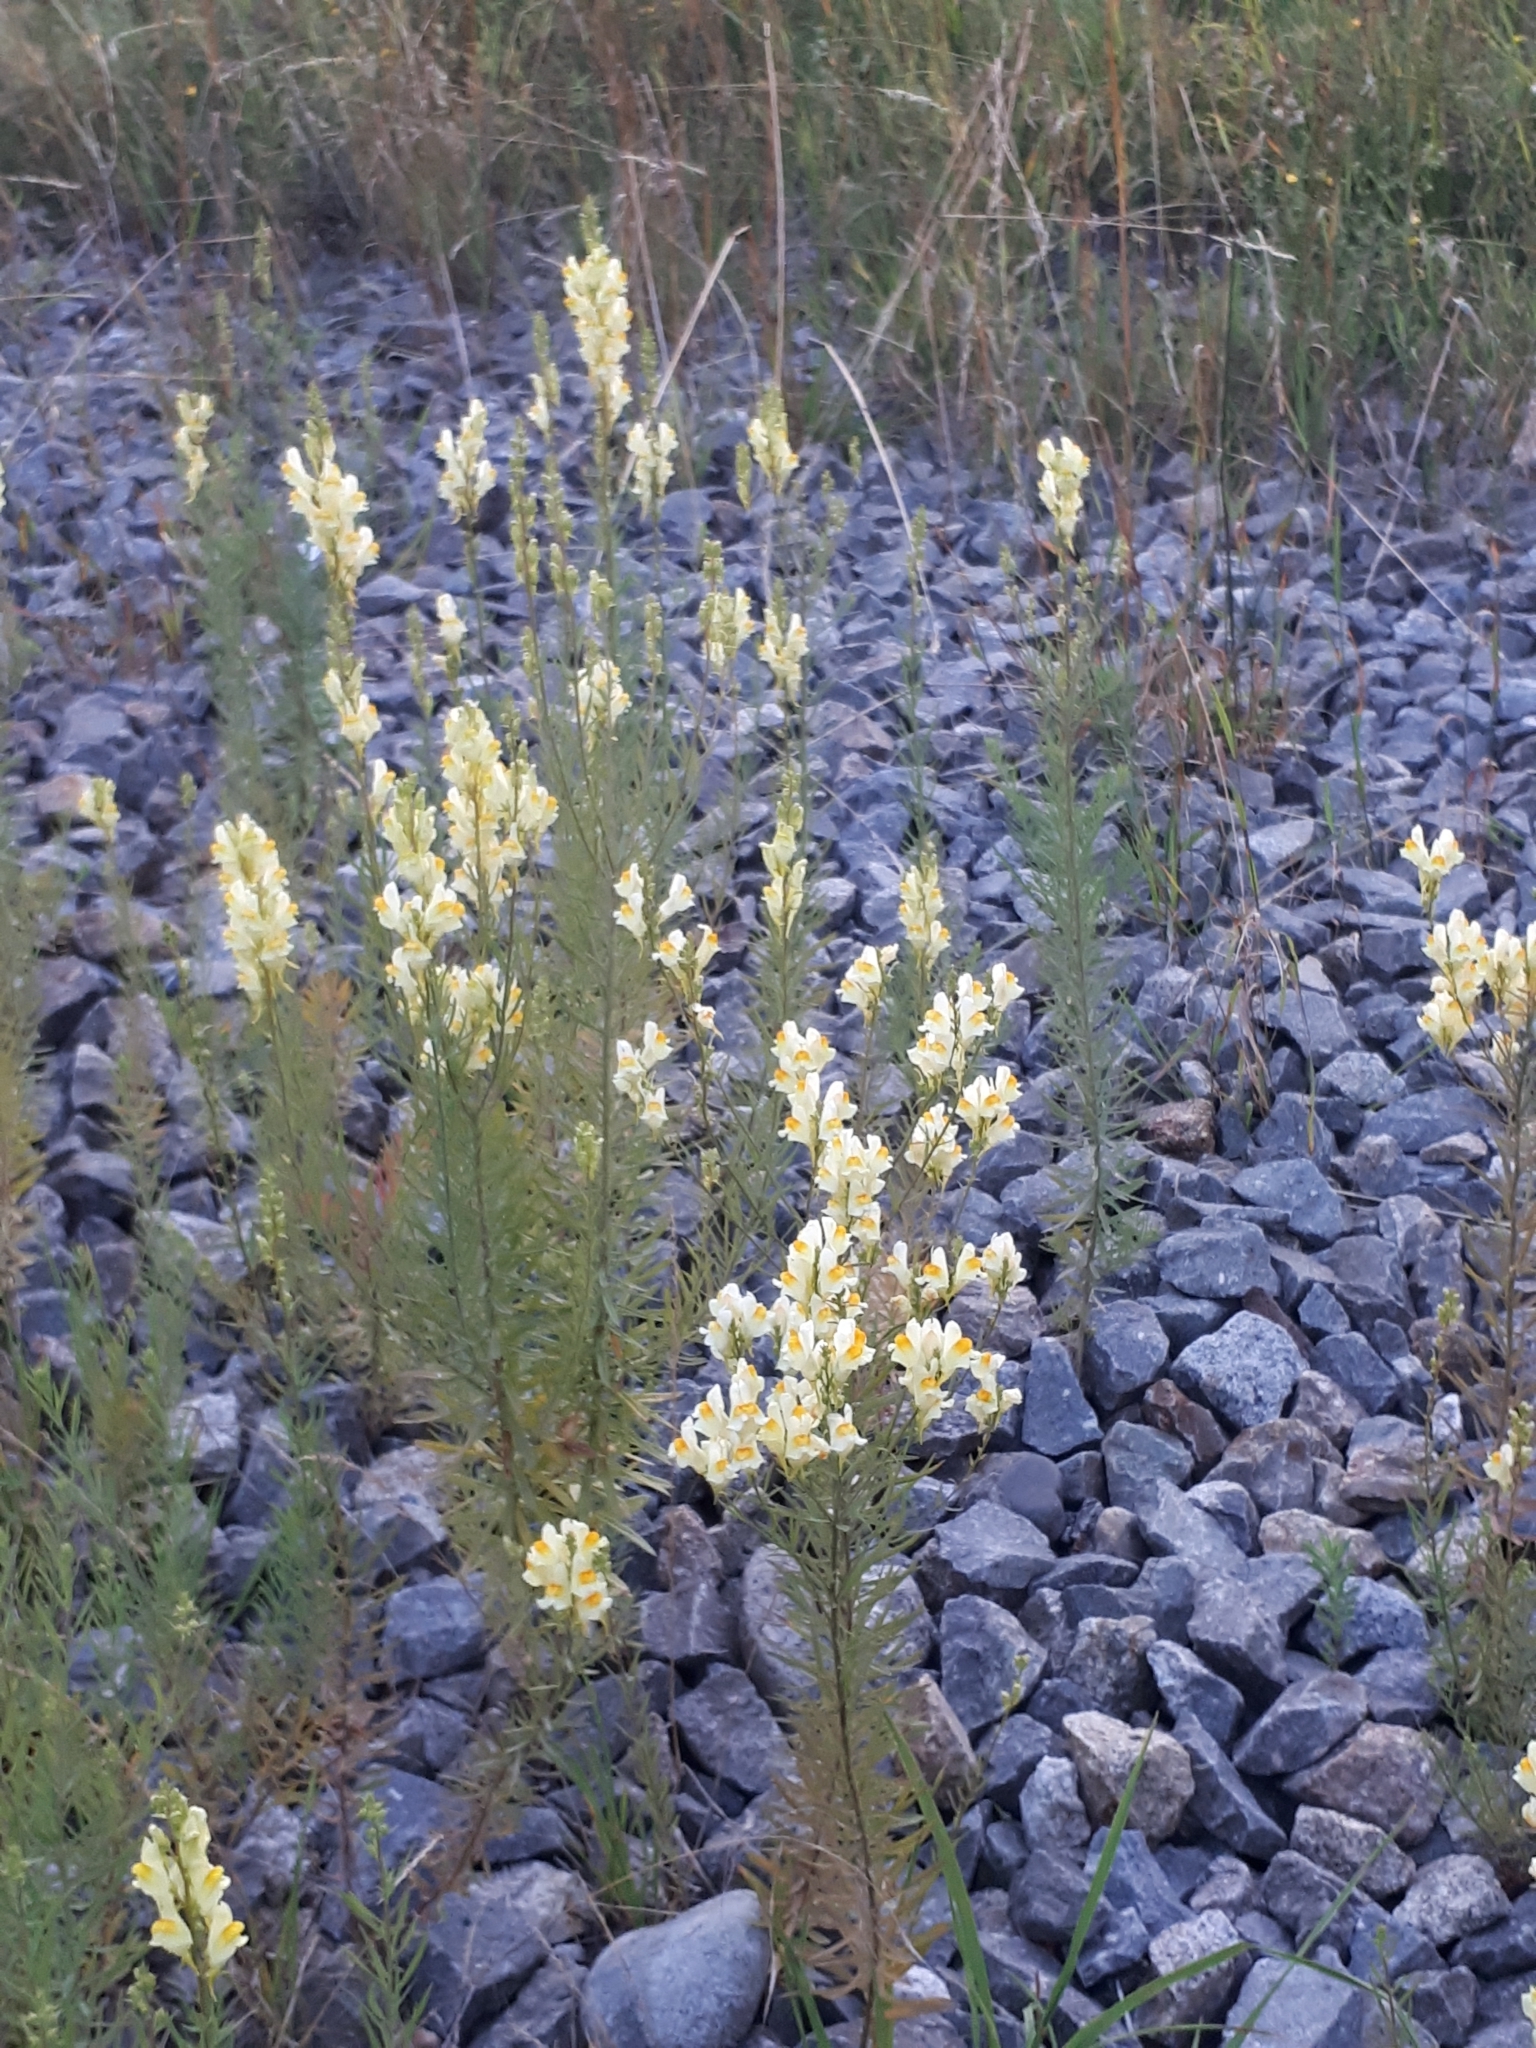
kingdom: Plantae
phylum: Tracheophyta
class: Magnoliopsida
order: Lamiales
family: Plantaginaceae
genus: Linaria
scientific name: Linaria vulgaris
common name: Butter and eggs
